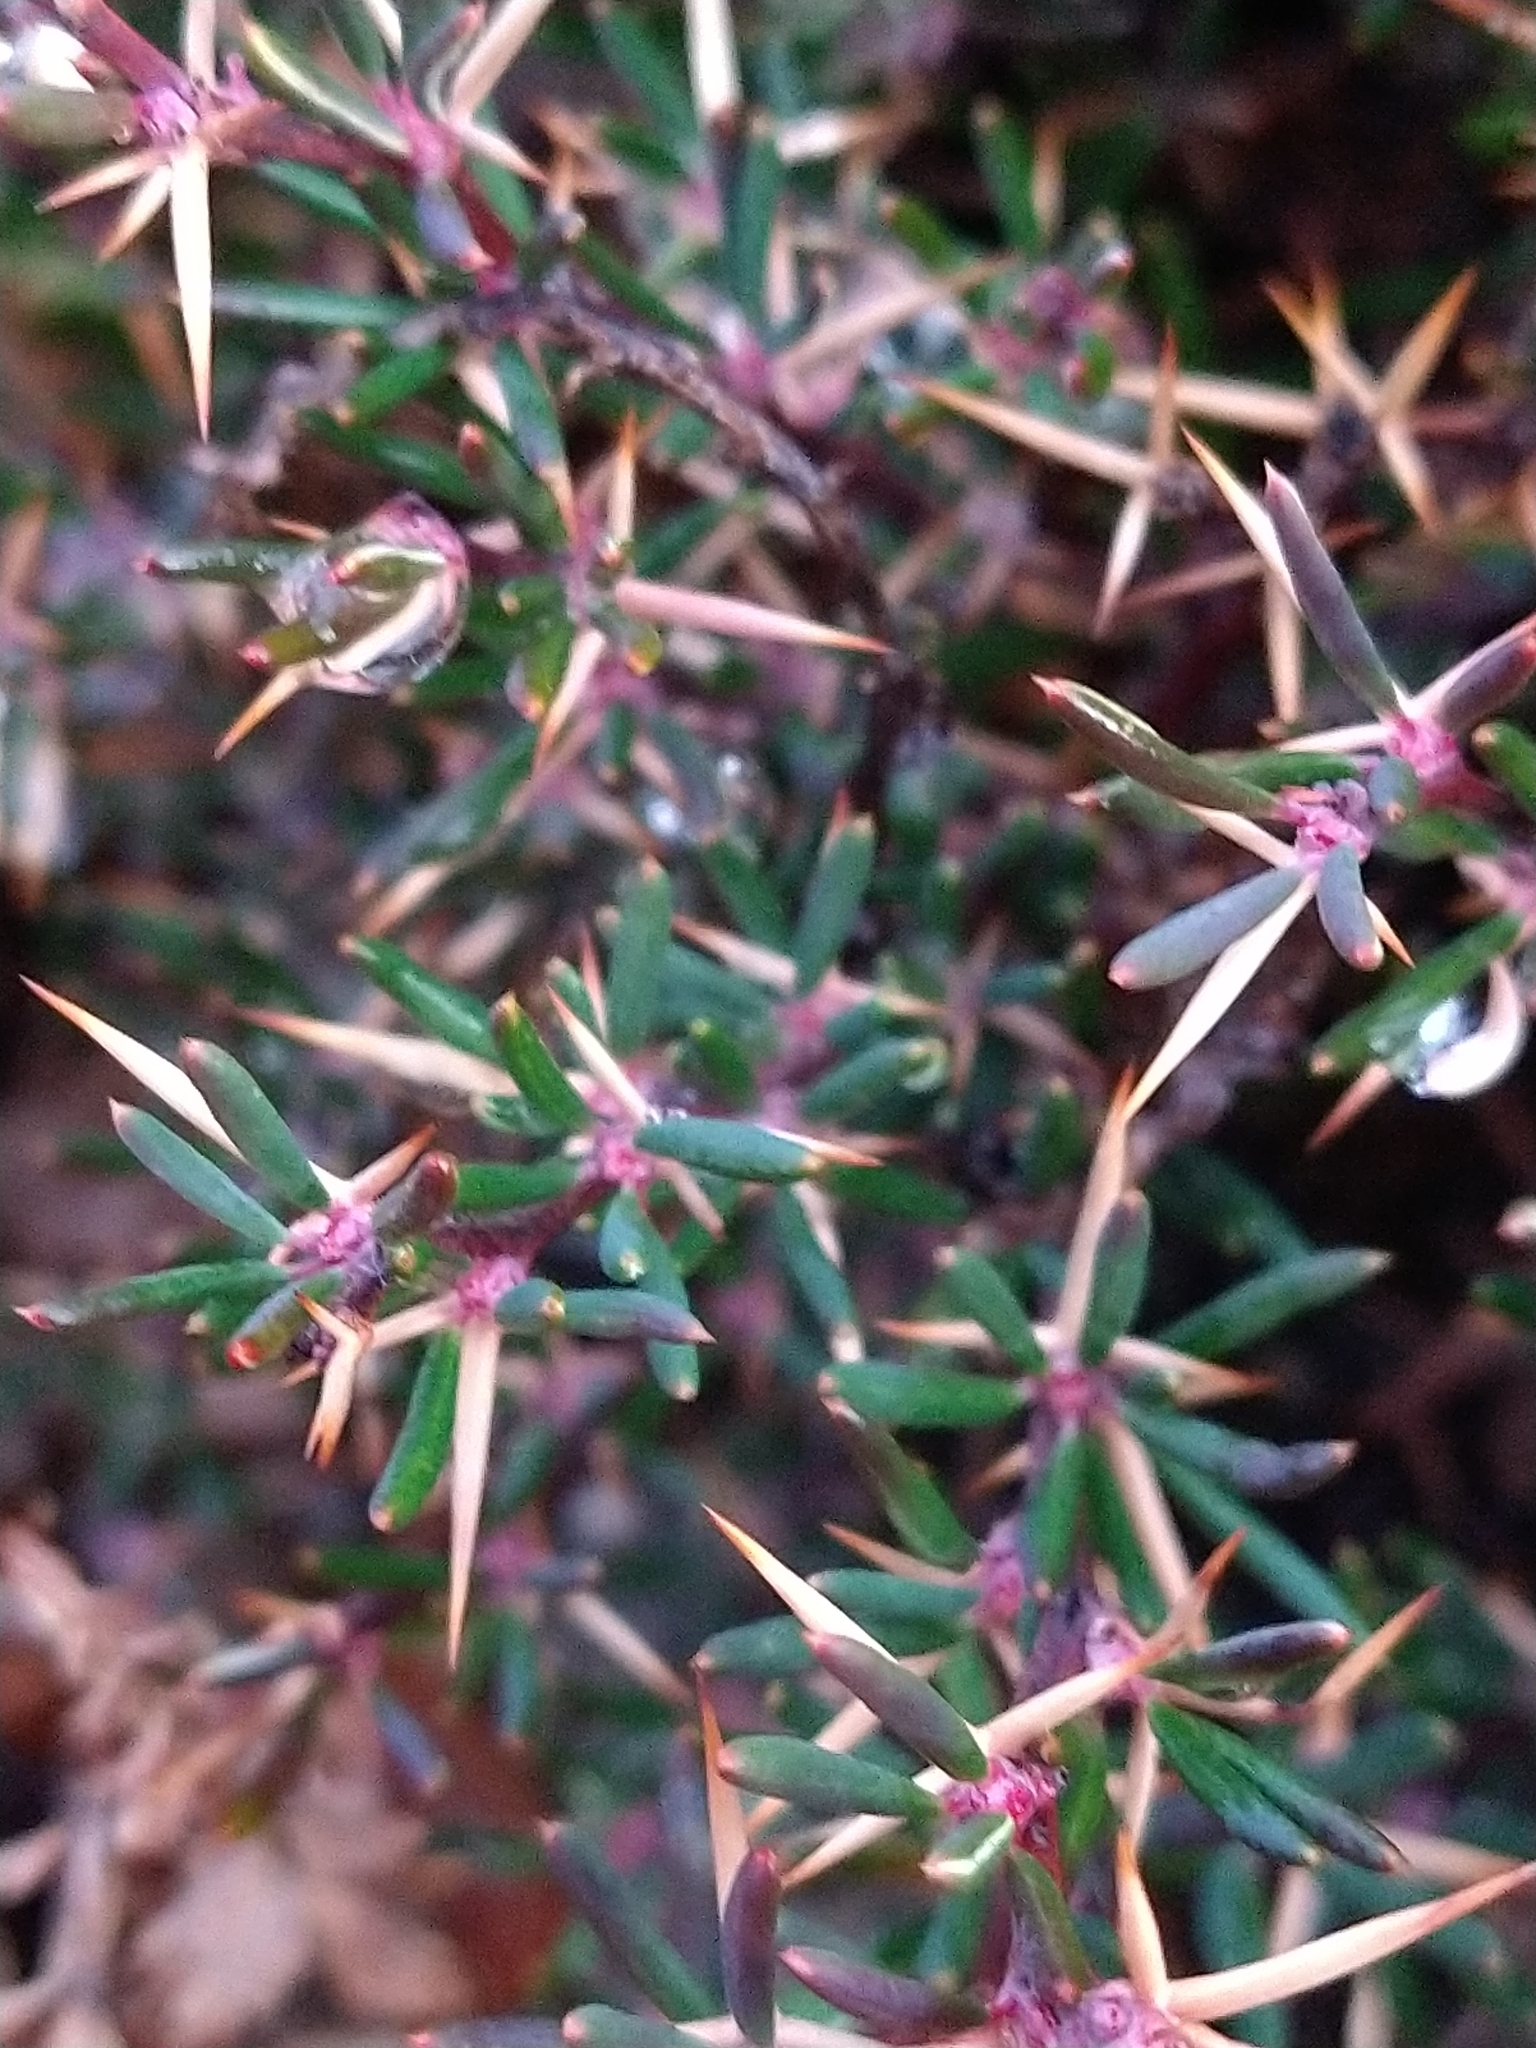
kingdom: Plantae
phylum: Tracheophyta
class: Magnoliopsida
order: Ranunculales
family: Berberidaceae
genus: Berberis
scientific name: Berberis empetrifolia
